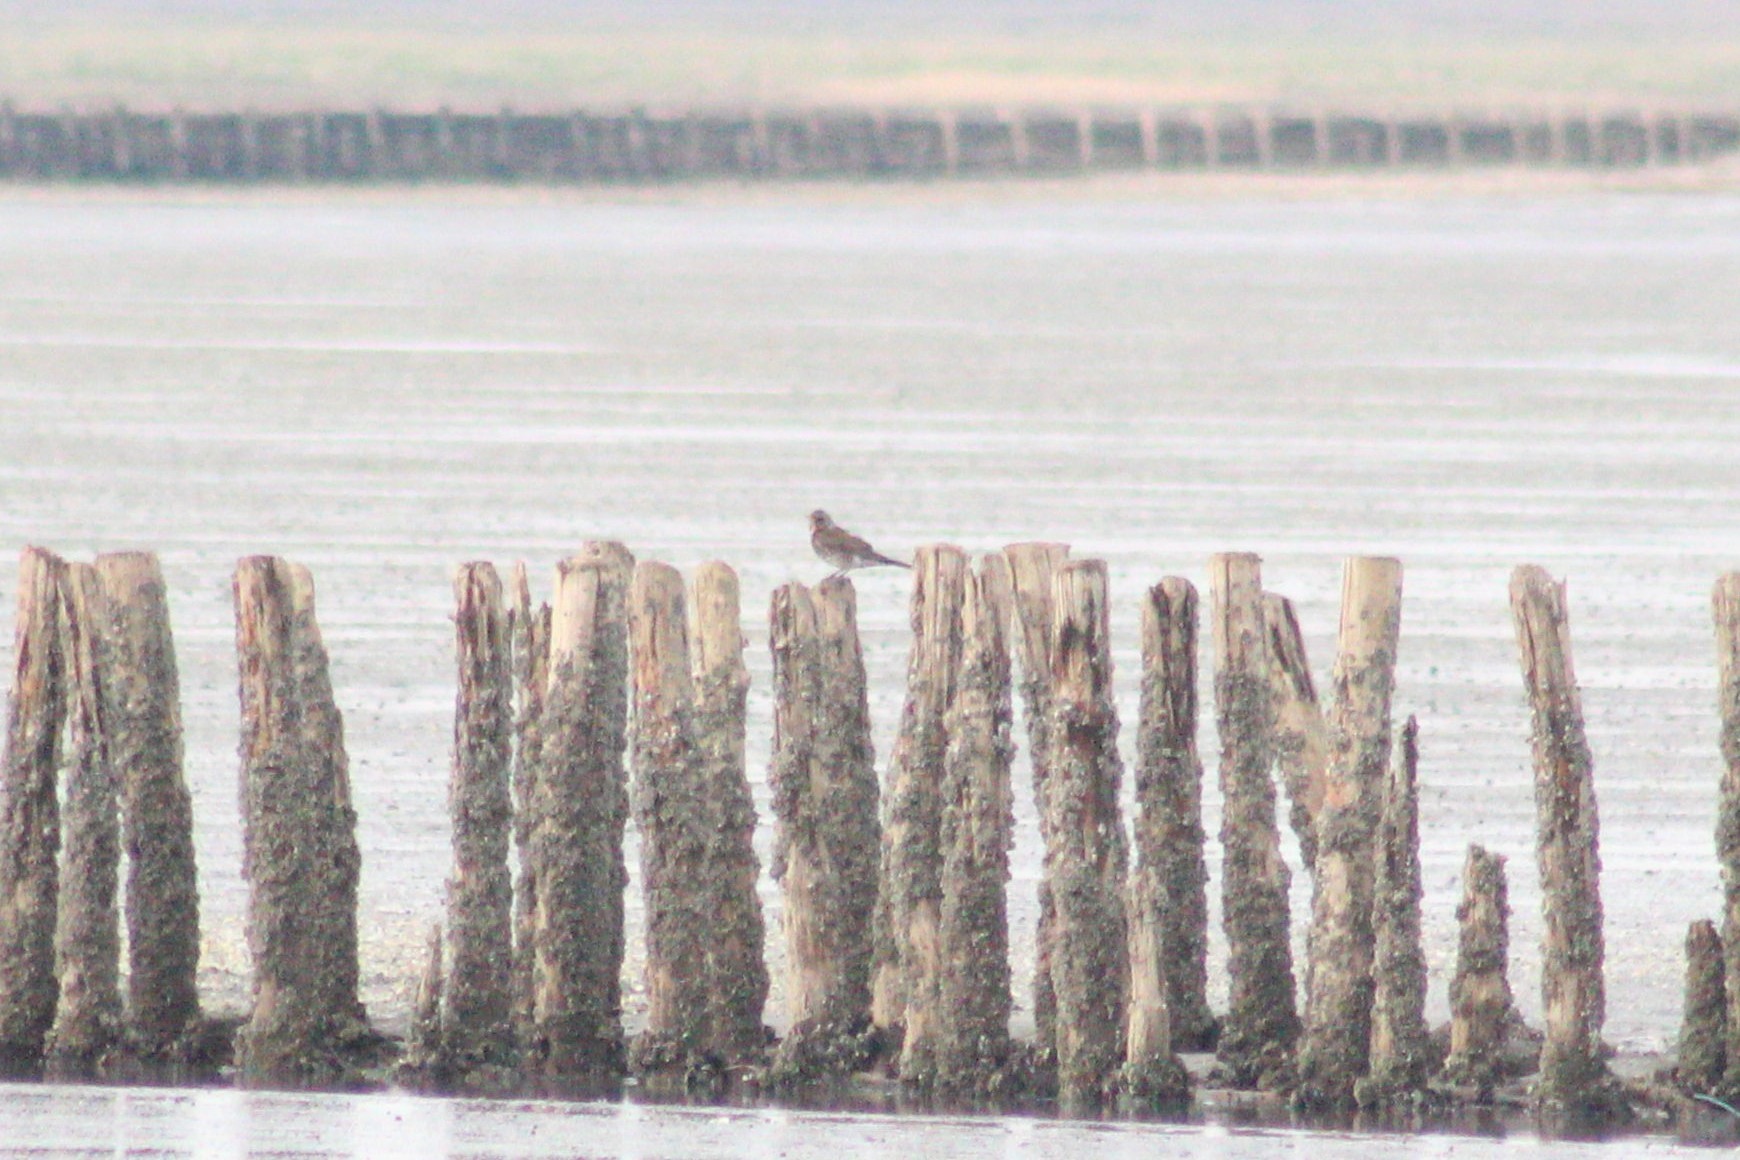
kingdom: Animalia
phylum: Chordata
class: Aves
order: Passeriformes
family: Turdidae
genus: Turdus
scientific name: Turdus pilaris
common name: Fieldfare
